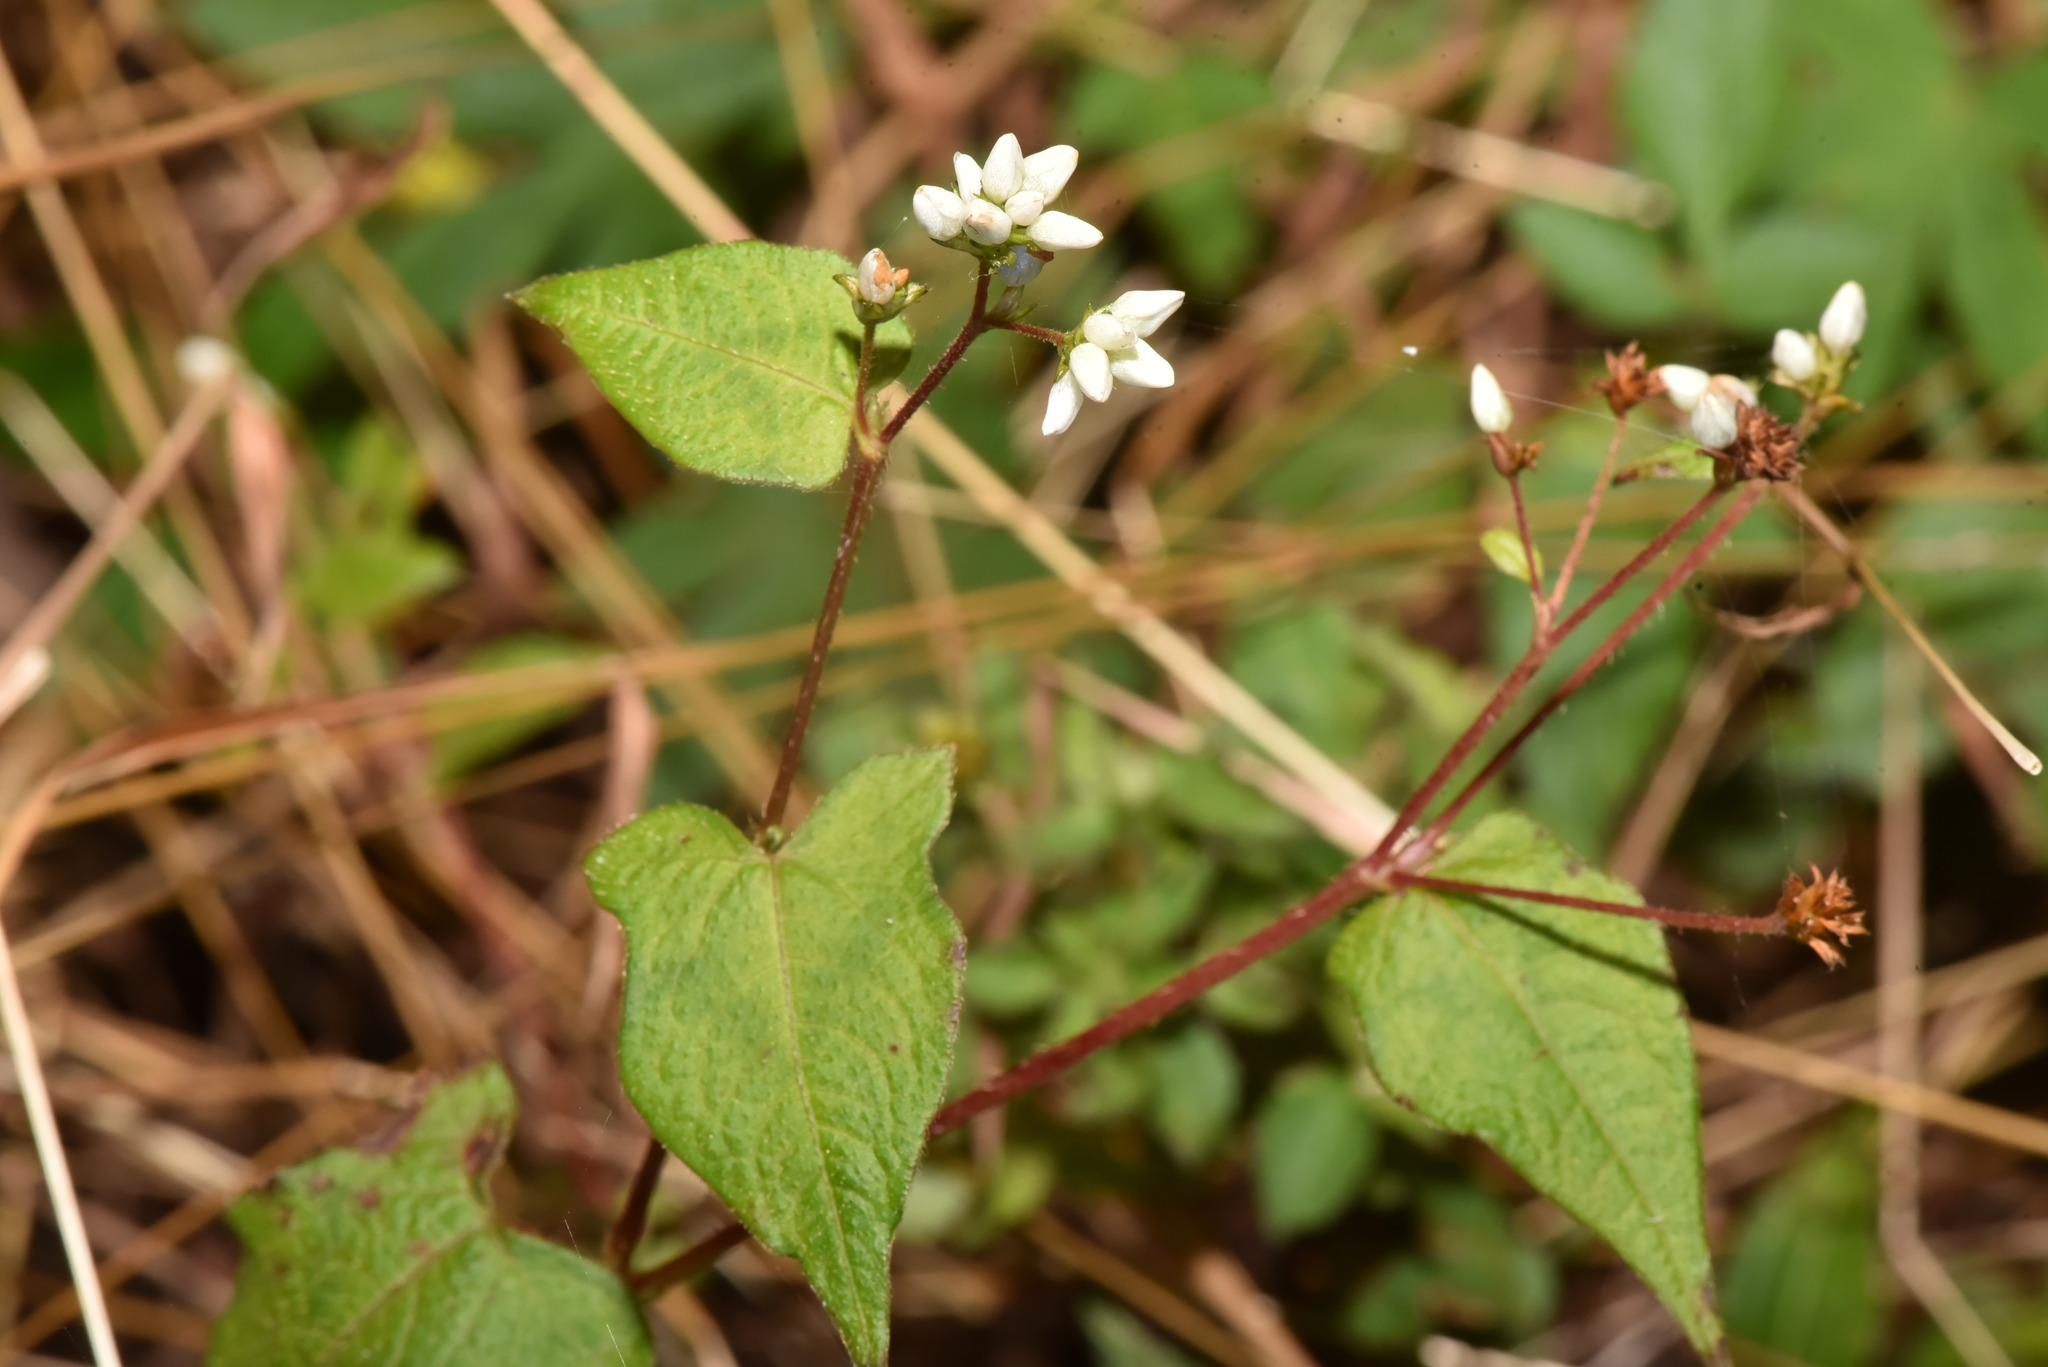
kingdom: Plantae
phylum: Tracheophyta
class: Magnoliopsida
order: Caryophyllales
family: Polygonaceae
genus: Persicaria
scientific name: Persicaria biconvexa
